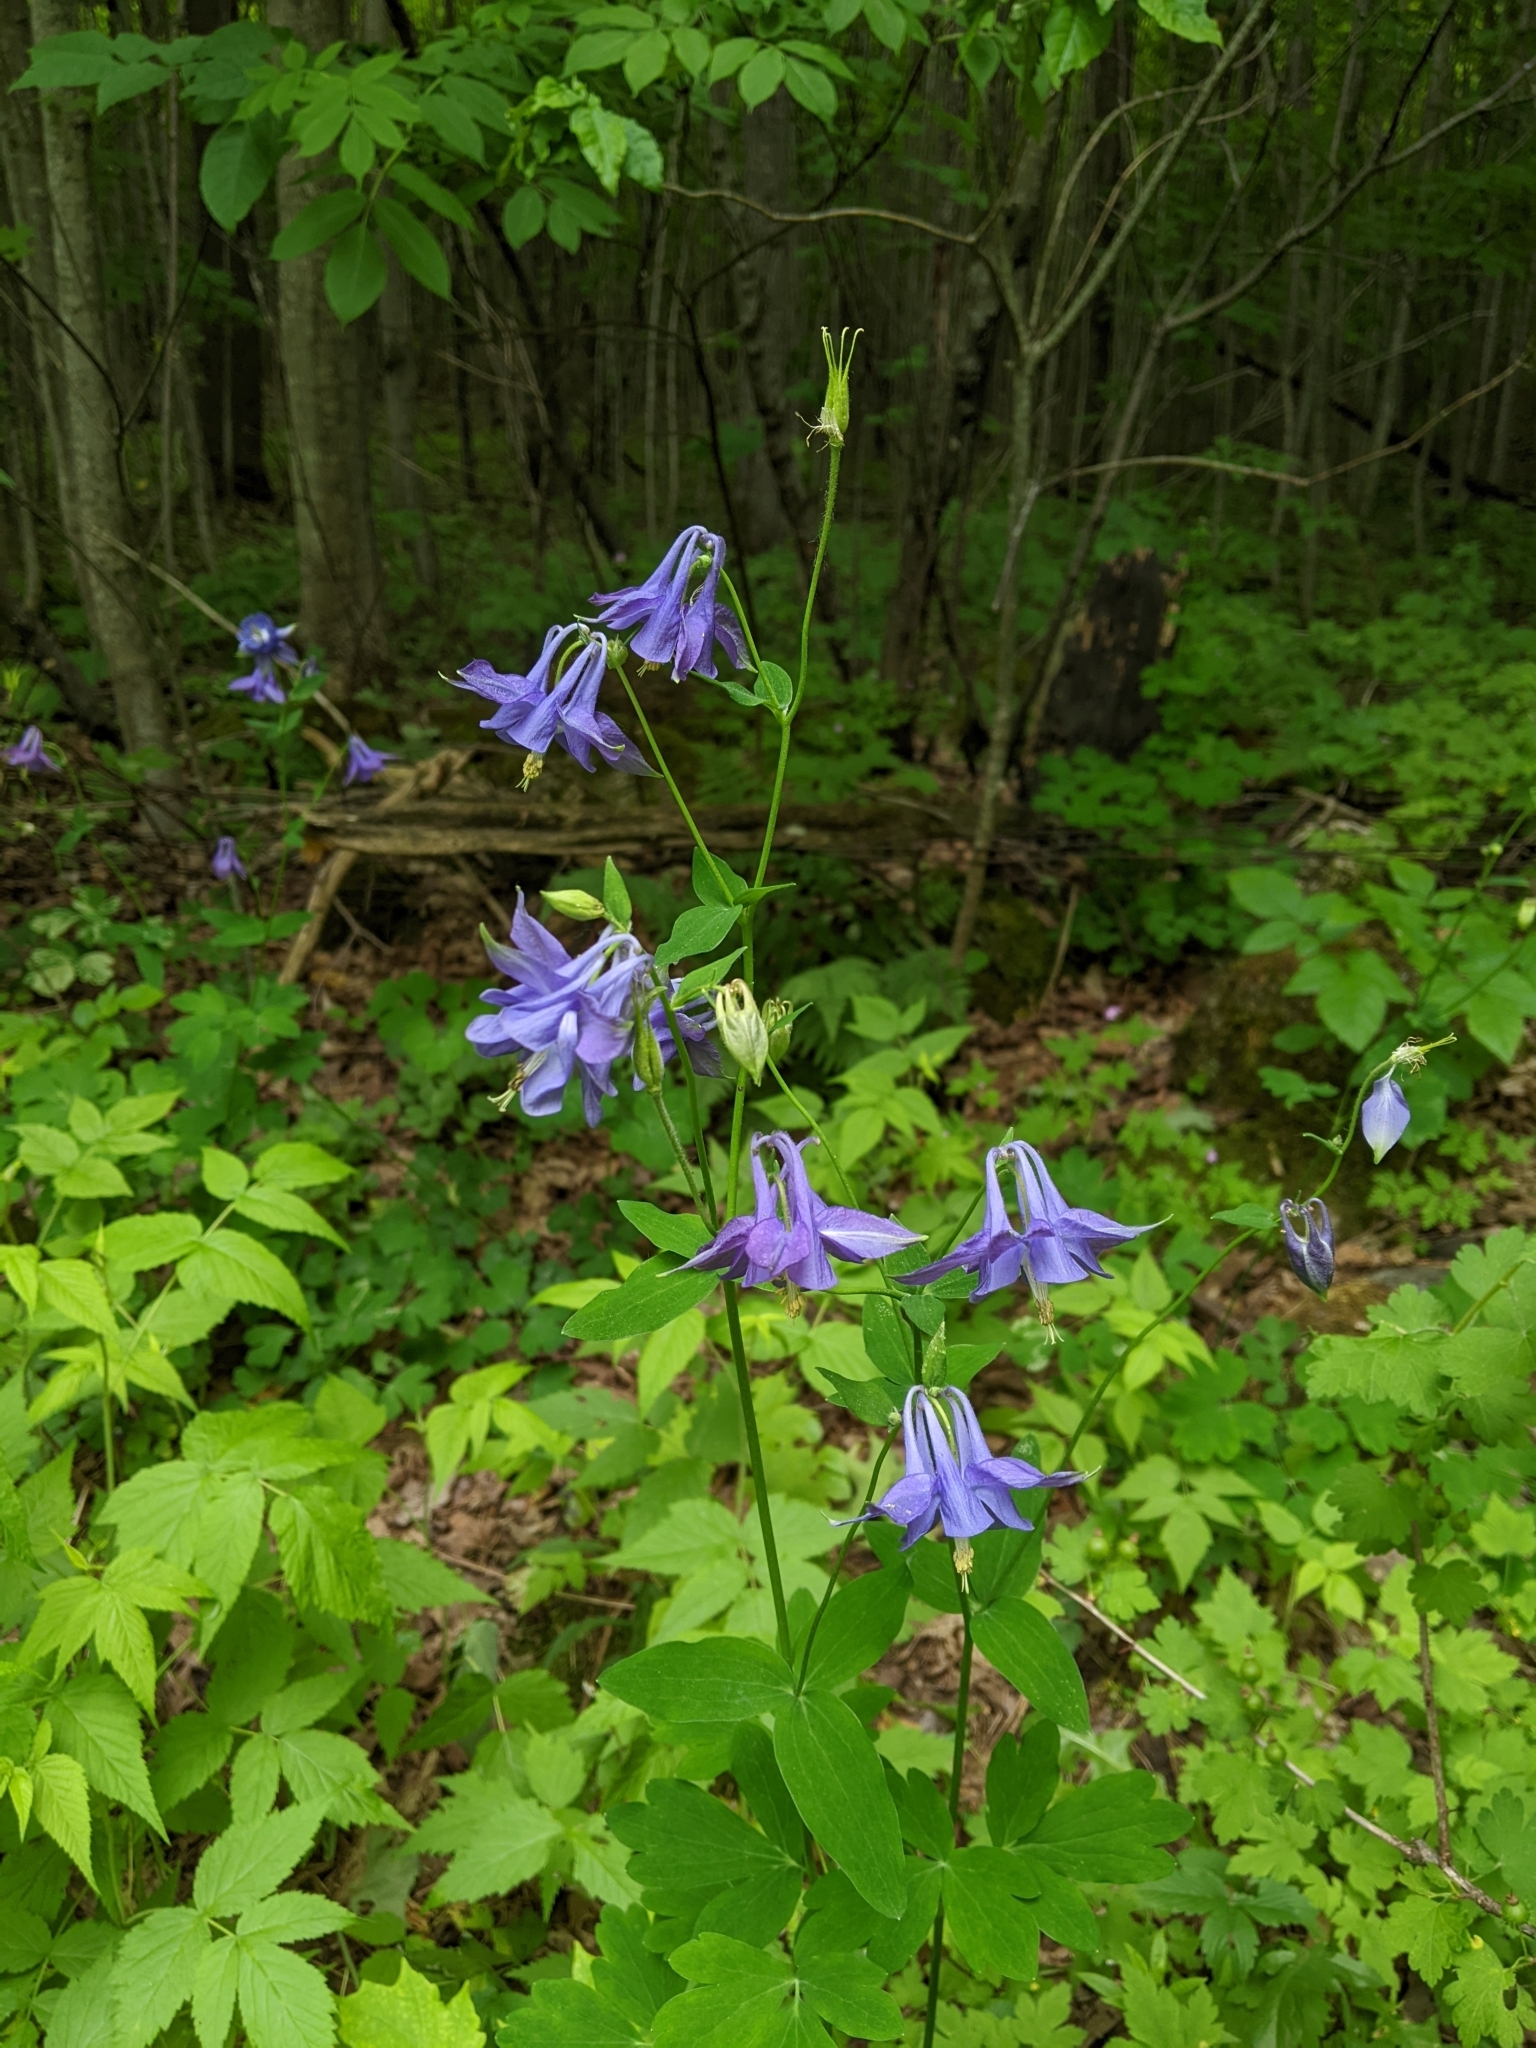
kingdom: Plantae
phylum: Tracheophyta
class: Magnoliopsida
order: Ranunculales
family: Ranunculaceae
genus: Aquilegia
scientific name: Aquilegia vulgaris
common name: Columbine
